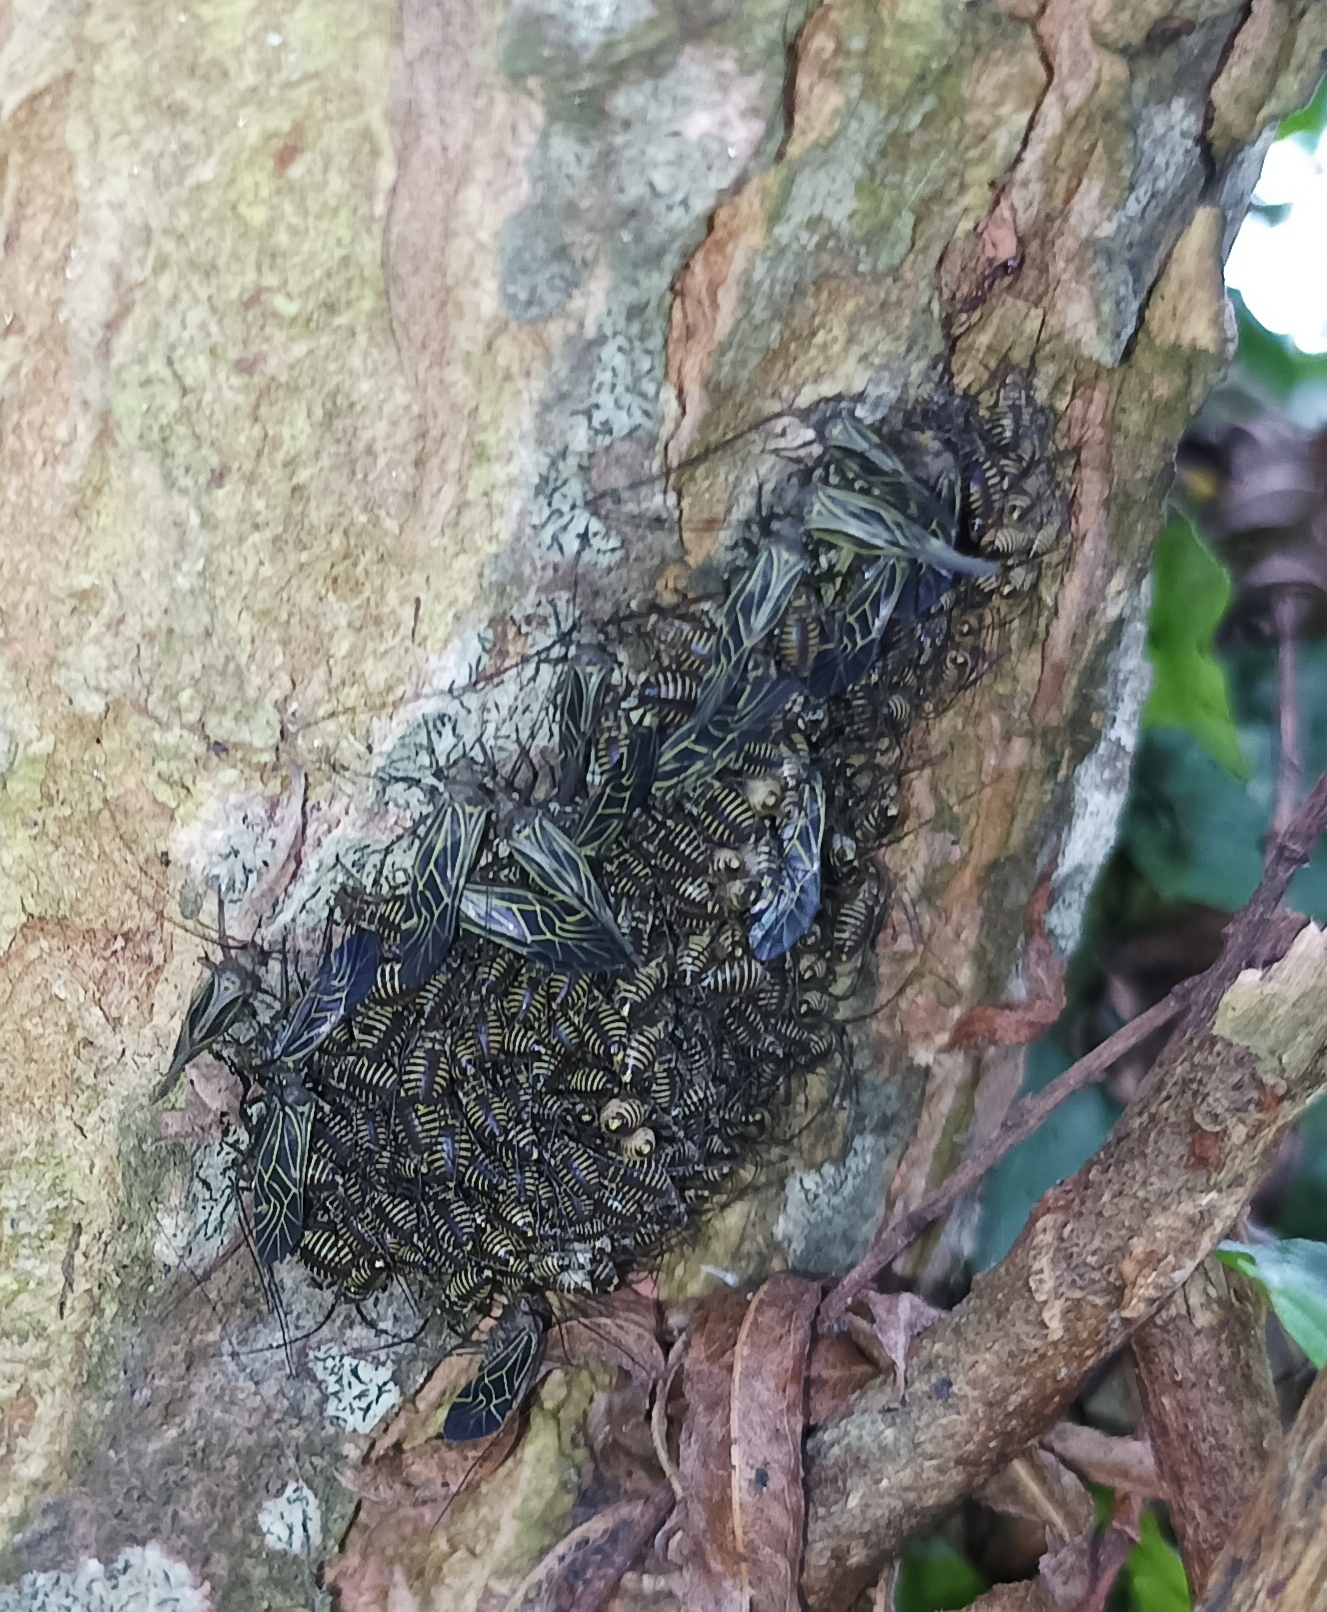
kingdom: Animalia
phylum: Arthropoda
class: Insecta
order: Psocodea
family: Psocidae
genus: Cerastipsocus
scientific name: Cerastipsocus venosus
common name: Tree cattle
